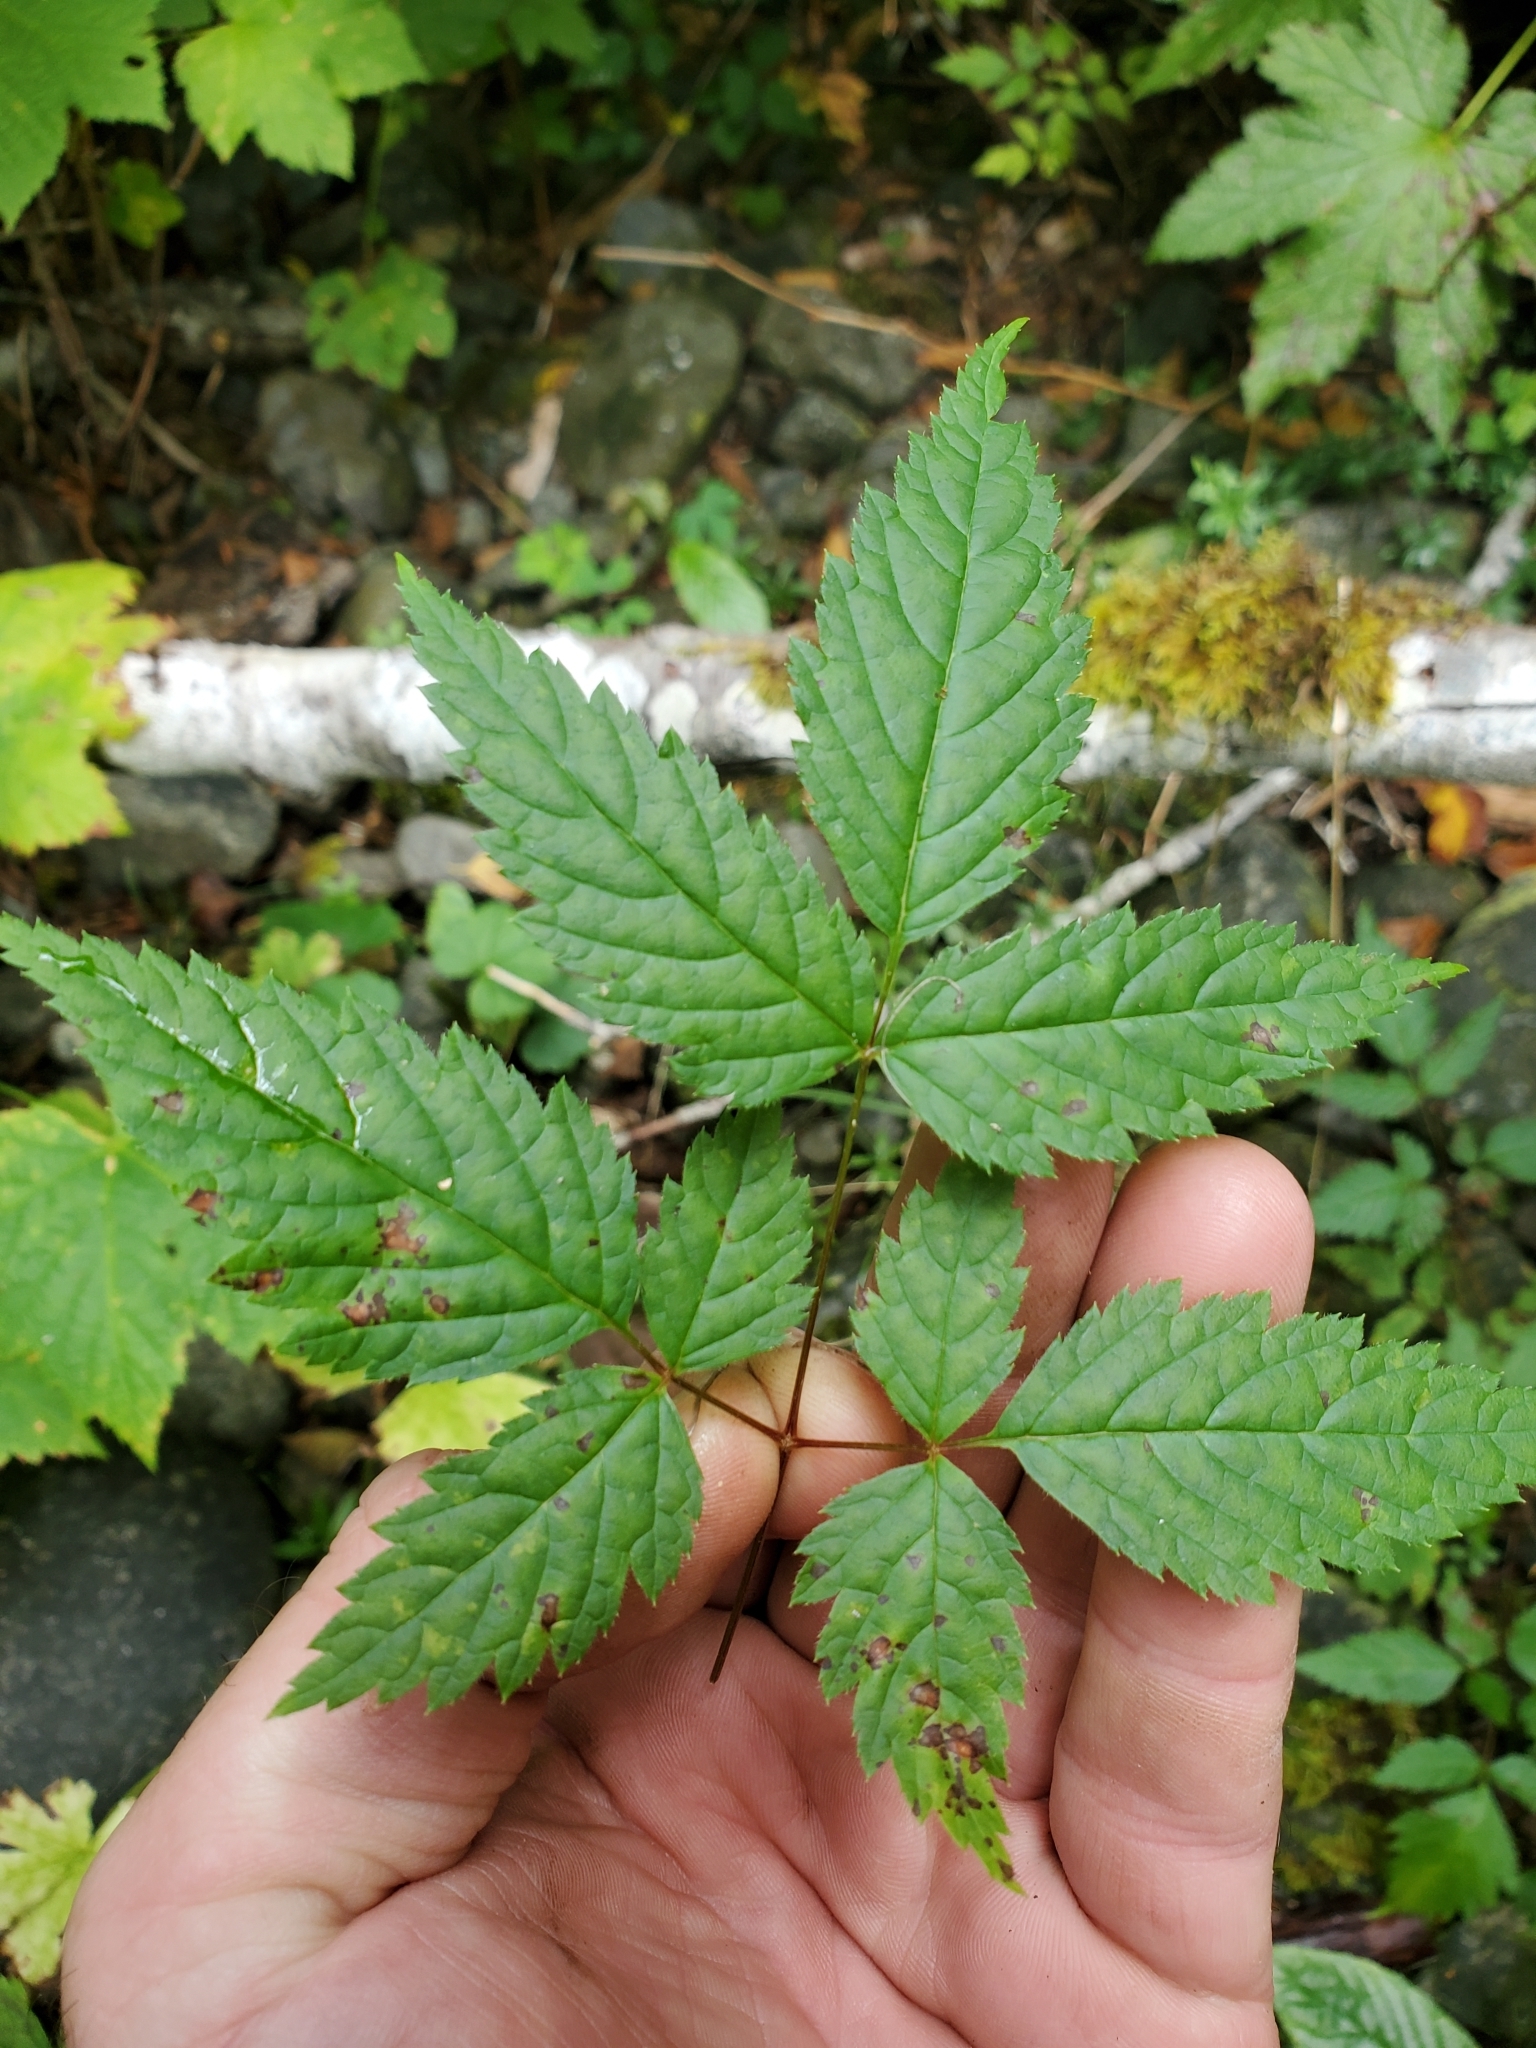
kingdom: Plantae
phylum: Tracheophyta
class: Magnoliopsida
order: Rosales
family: Rosaceae
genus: Aruncus
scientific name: Aruncus dioicus
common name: Buck's-beard
